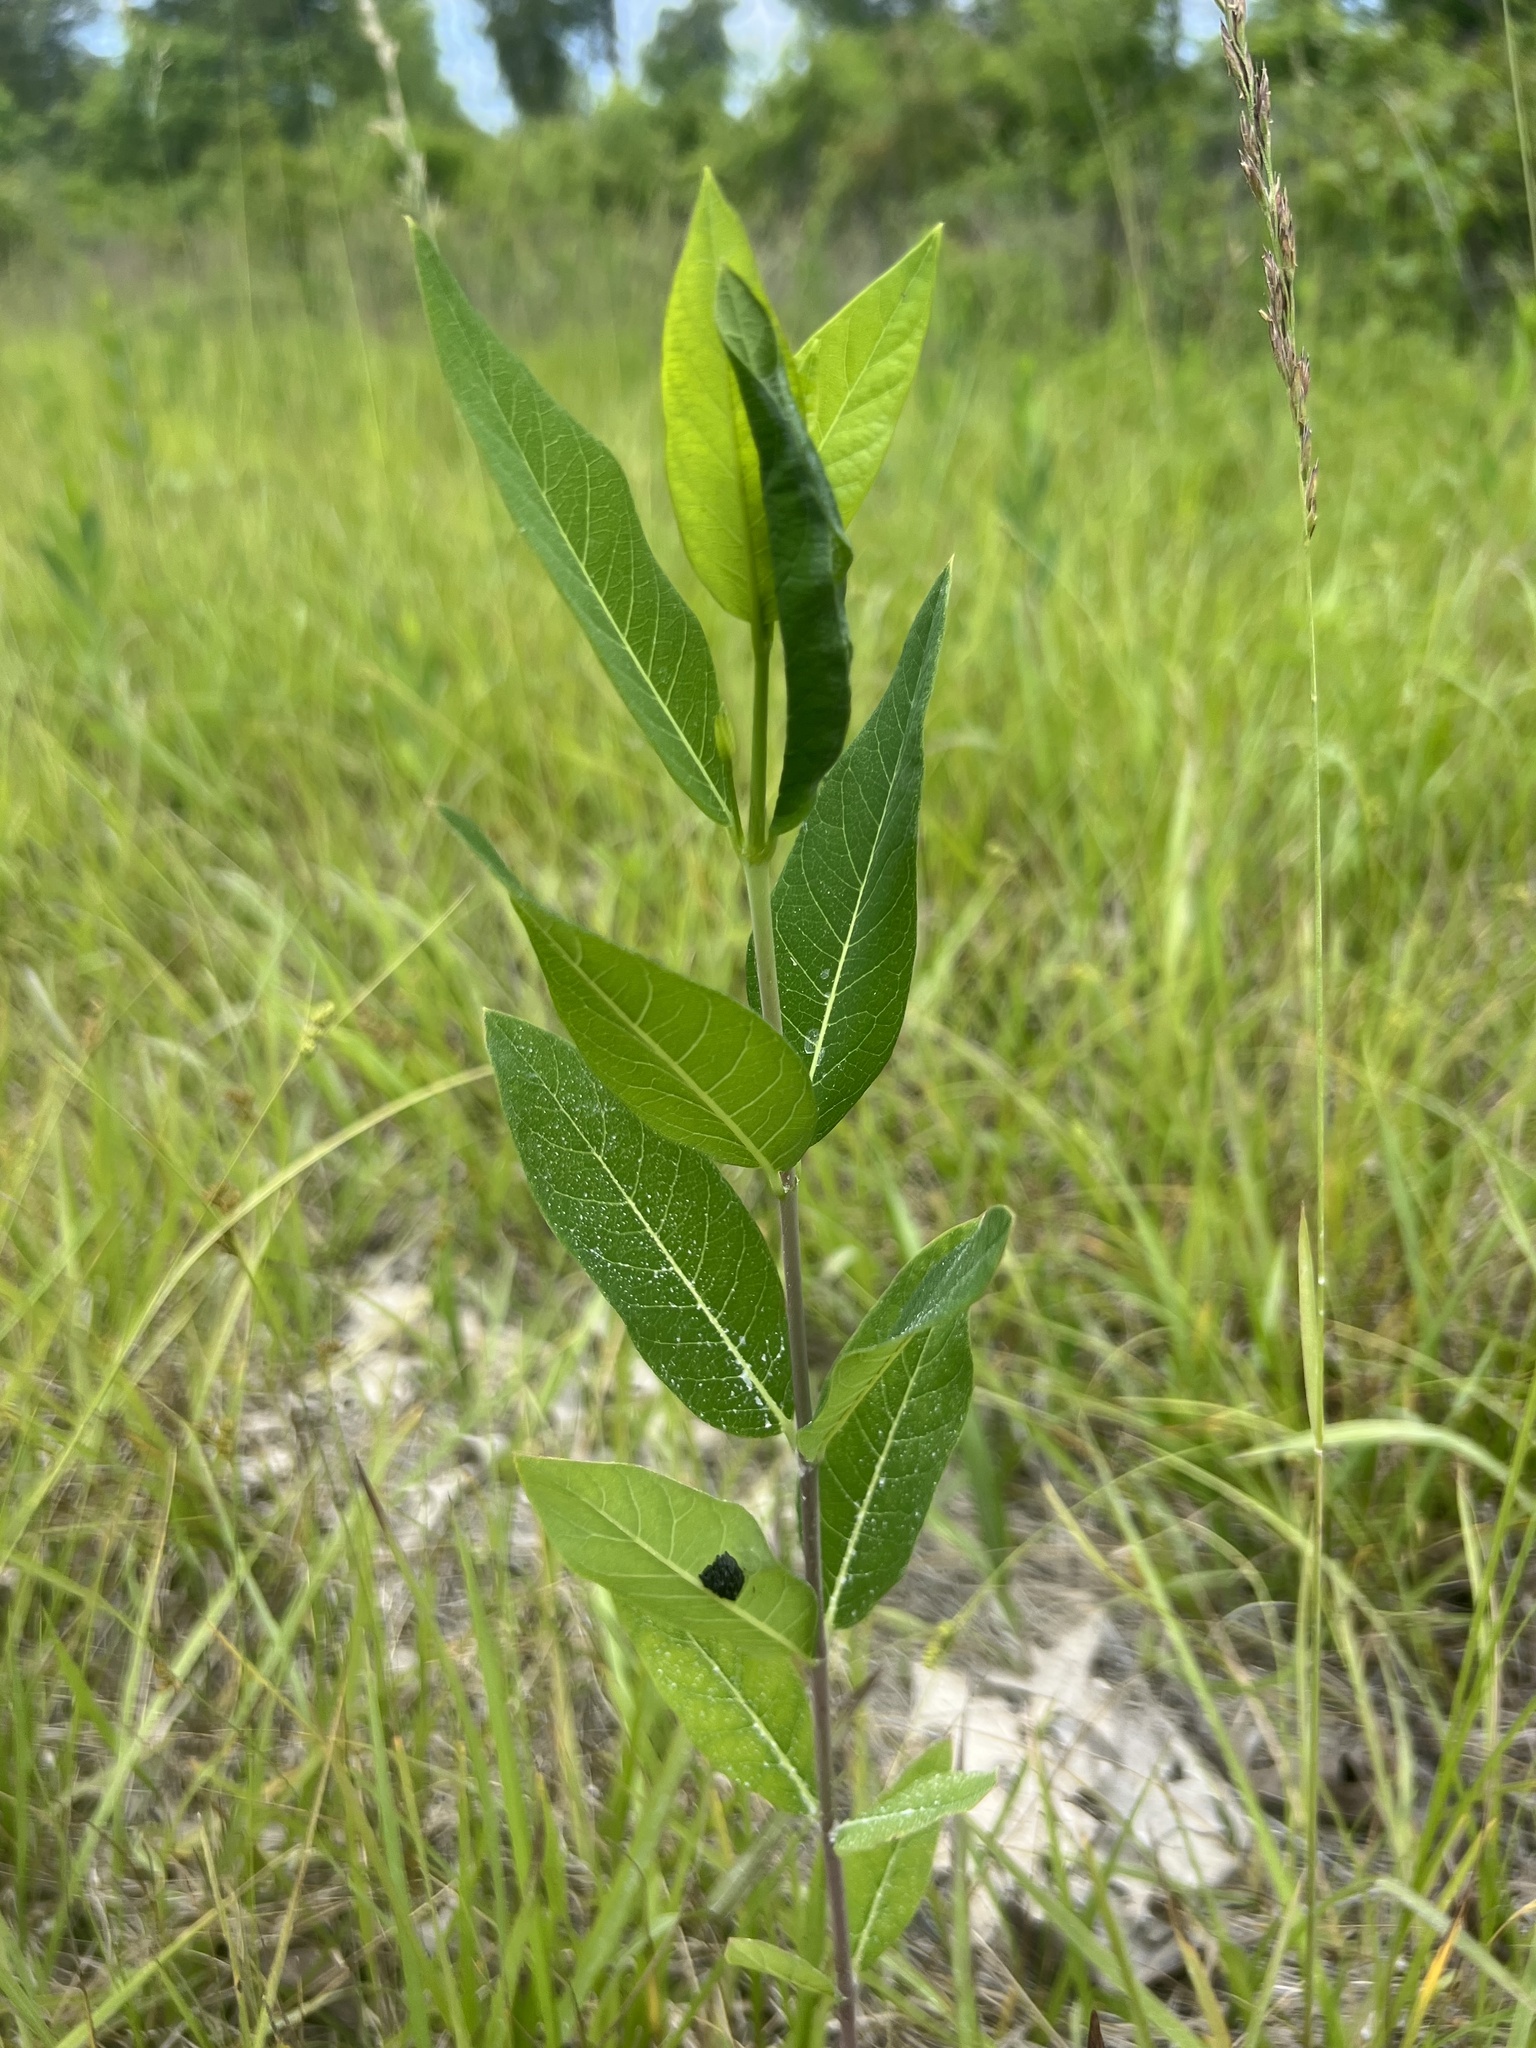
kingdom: Plantae
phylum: Tracheophyta
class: Magnoliopsida
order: Gentianales
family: Apocynaceae
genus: Apocynum
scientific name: Apocynum cannabinum
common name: Hemp dogbane
